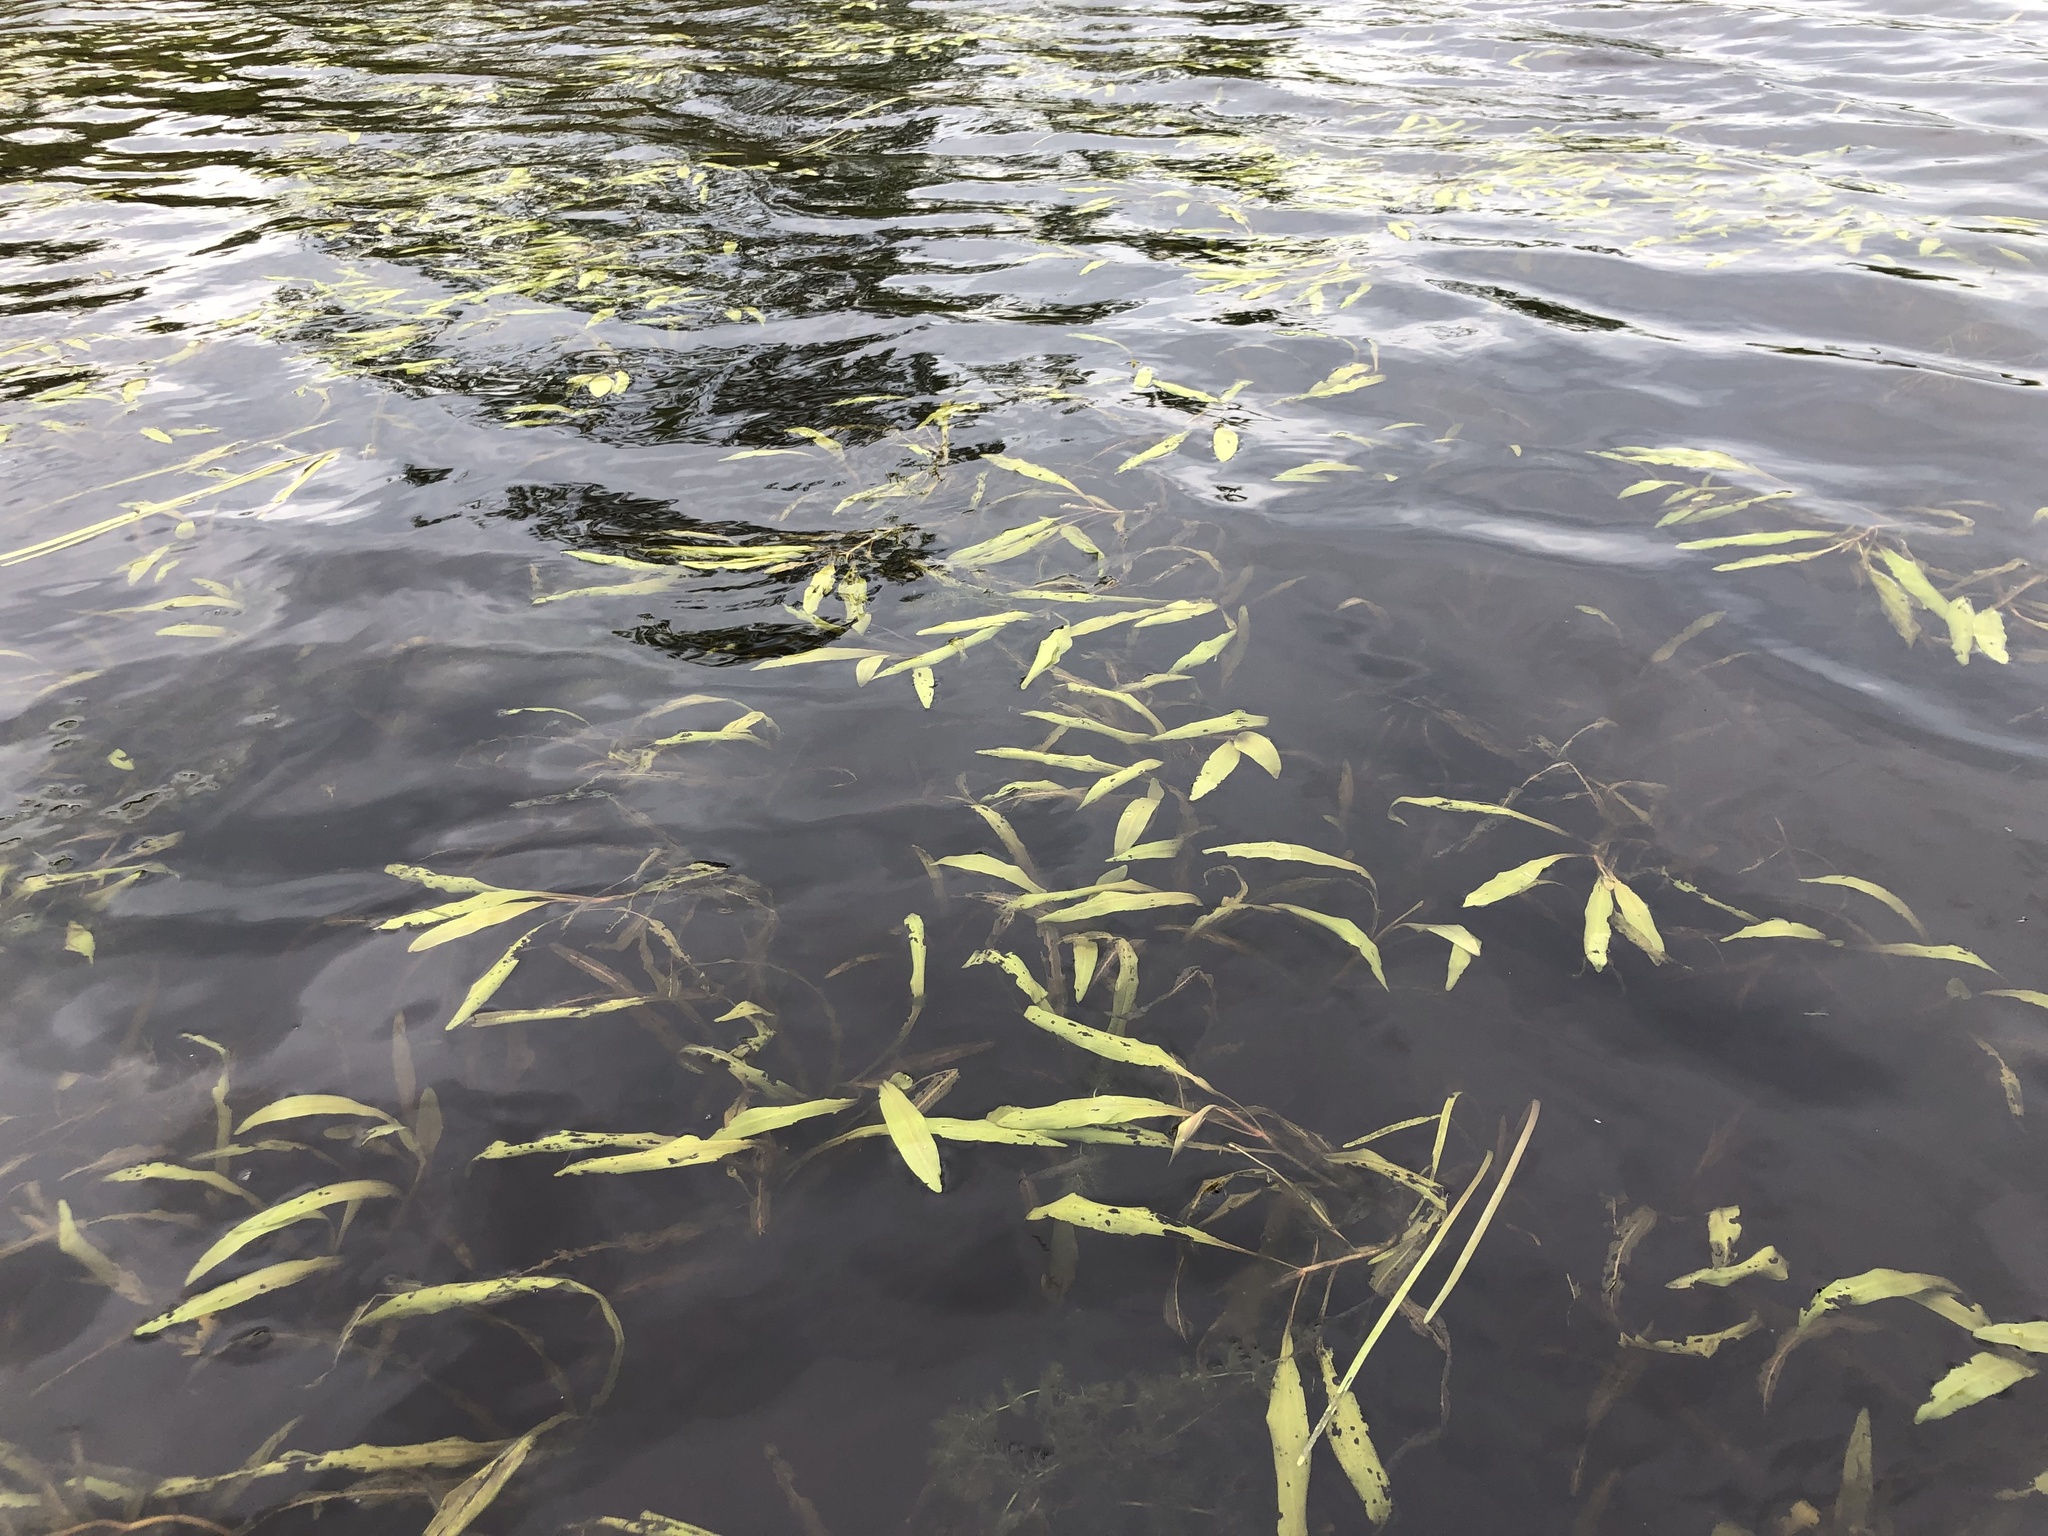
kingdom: Plantae
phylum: Tracheophyta
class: Liliopsida
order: Alismatales
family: Potamogetonaceae
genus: Potamogeton
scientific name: Potamogeton alpinus
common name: Red pondweed
